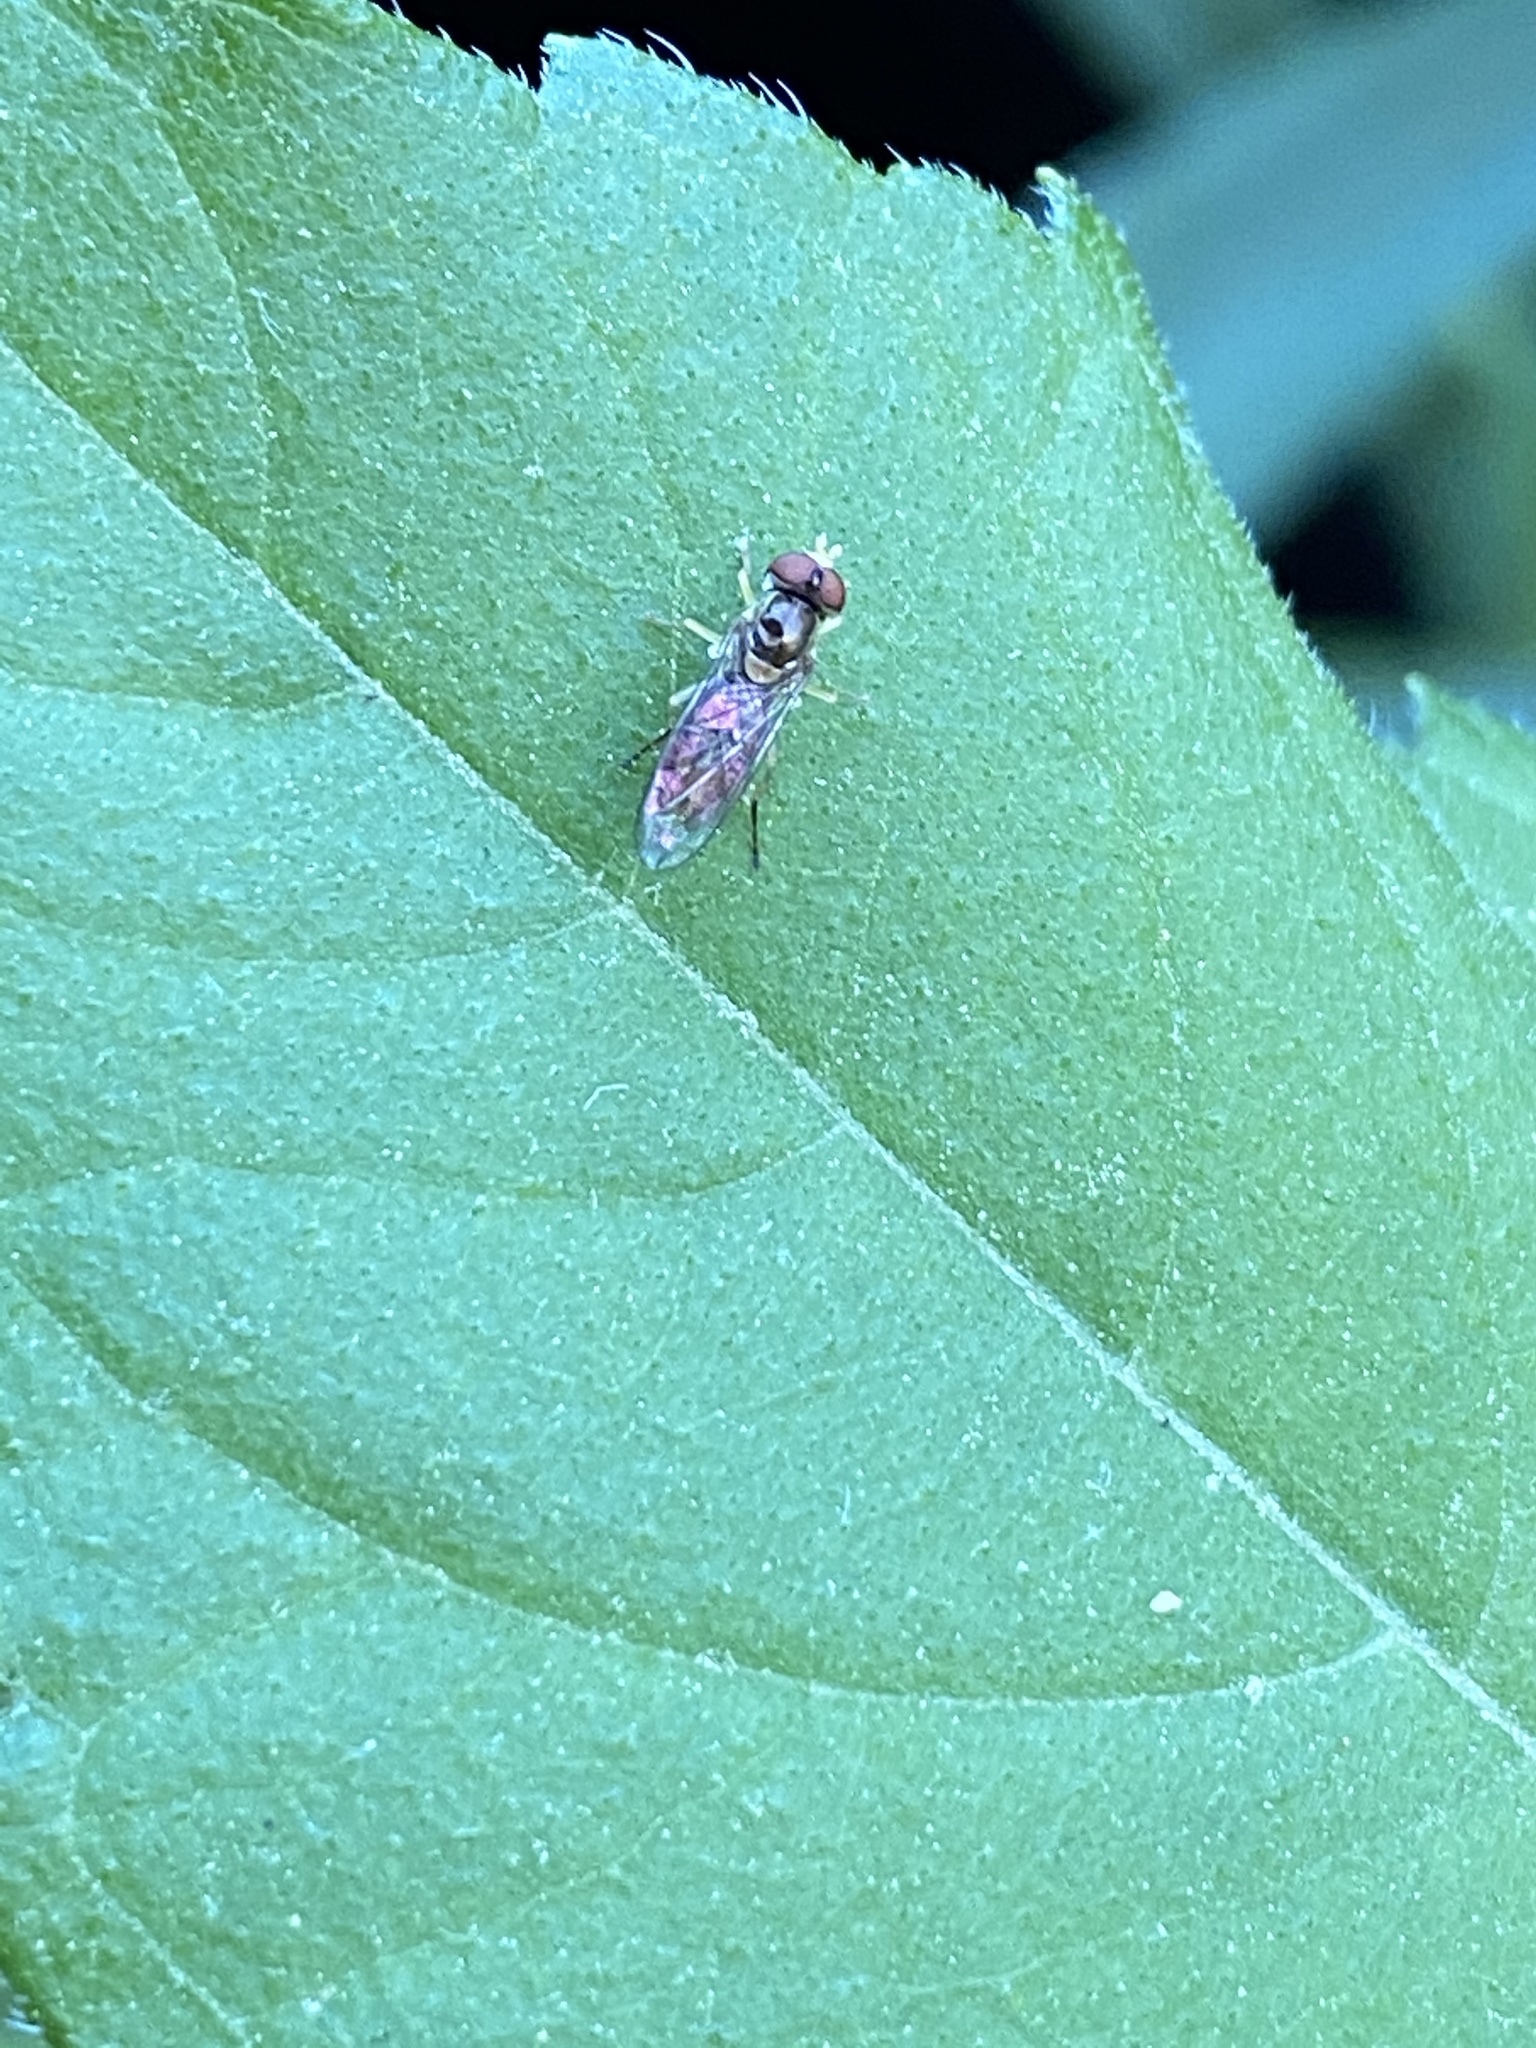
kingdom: Animalia
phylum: Arthropoda
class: Insecta
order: Diptera
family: Syrphidae
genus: Toxomerus
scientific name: Toxomerus marginatus
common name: Syrphid fly
